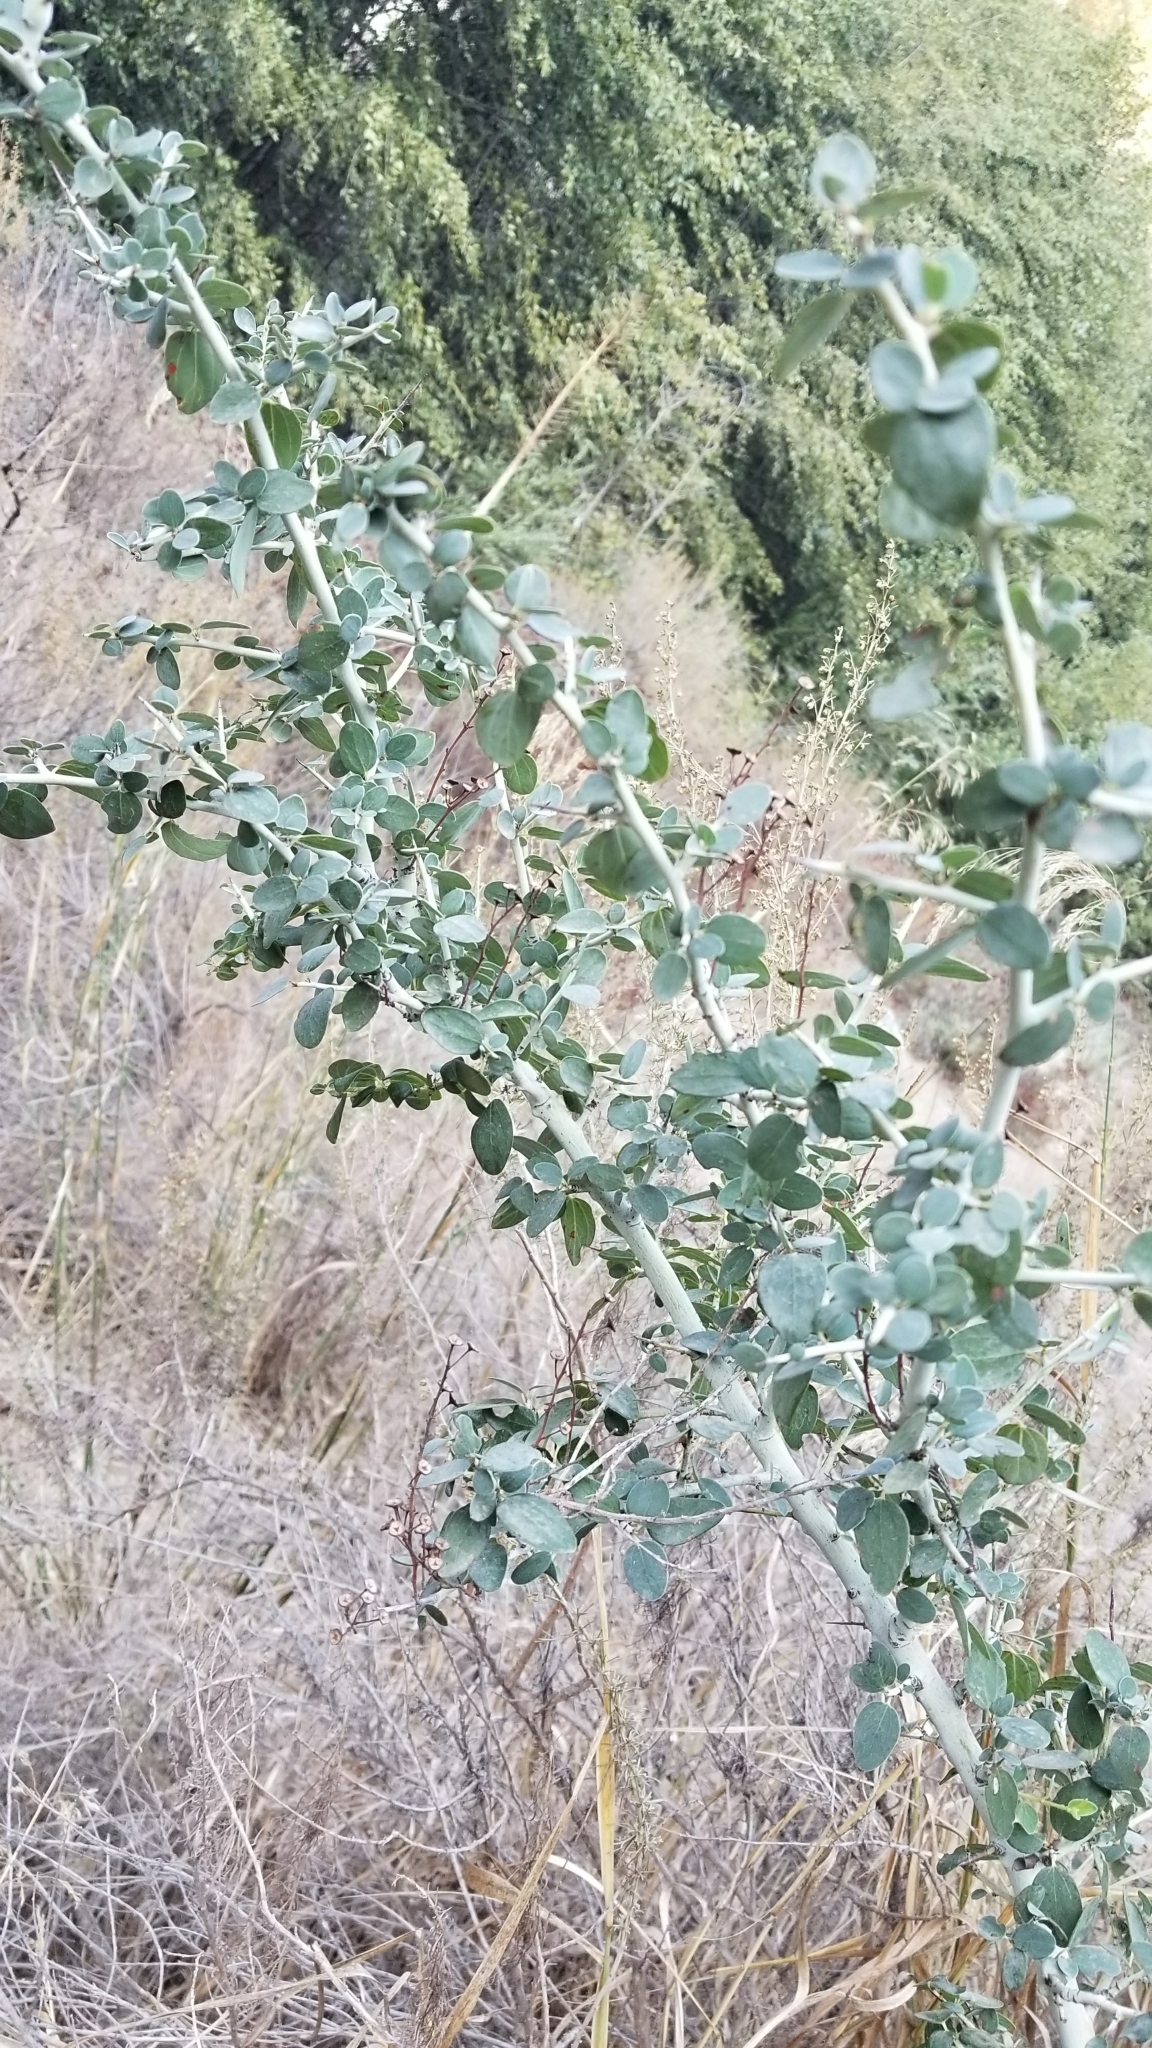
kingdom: Plantae
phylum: Tracheophyta
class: Magnoliopsida
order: Rosales
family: Rhamnaceae
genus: Ceanothus
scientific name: Ceanothus leucodermis
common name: Chaparral whitethorn
